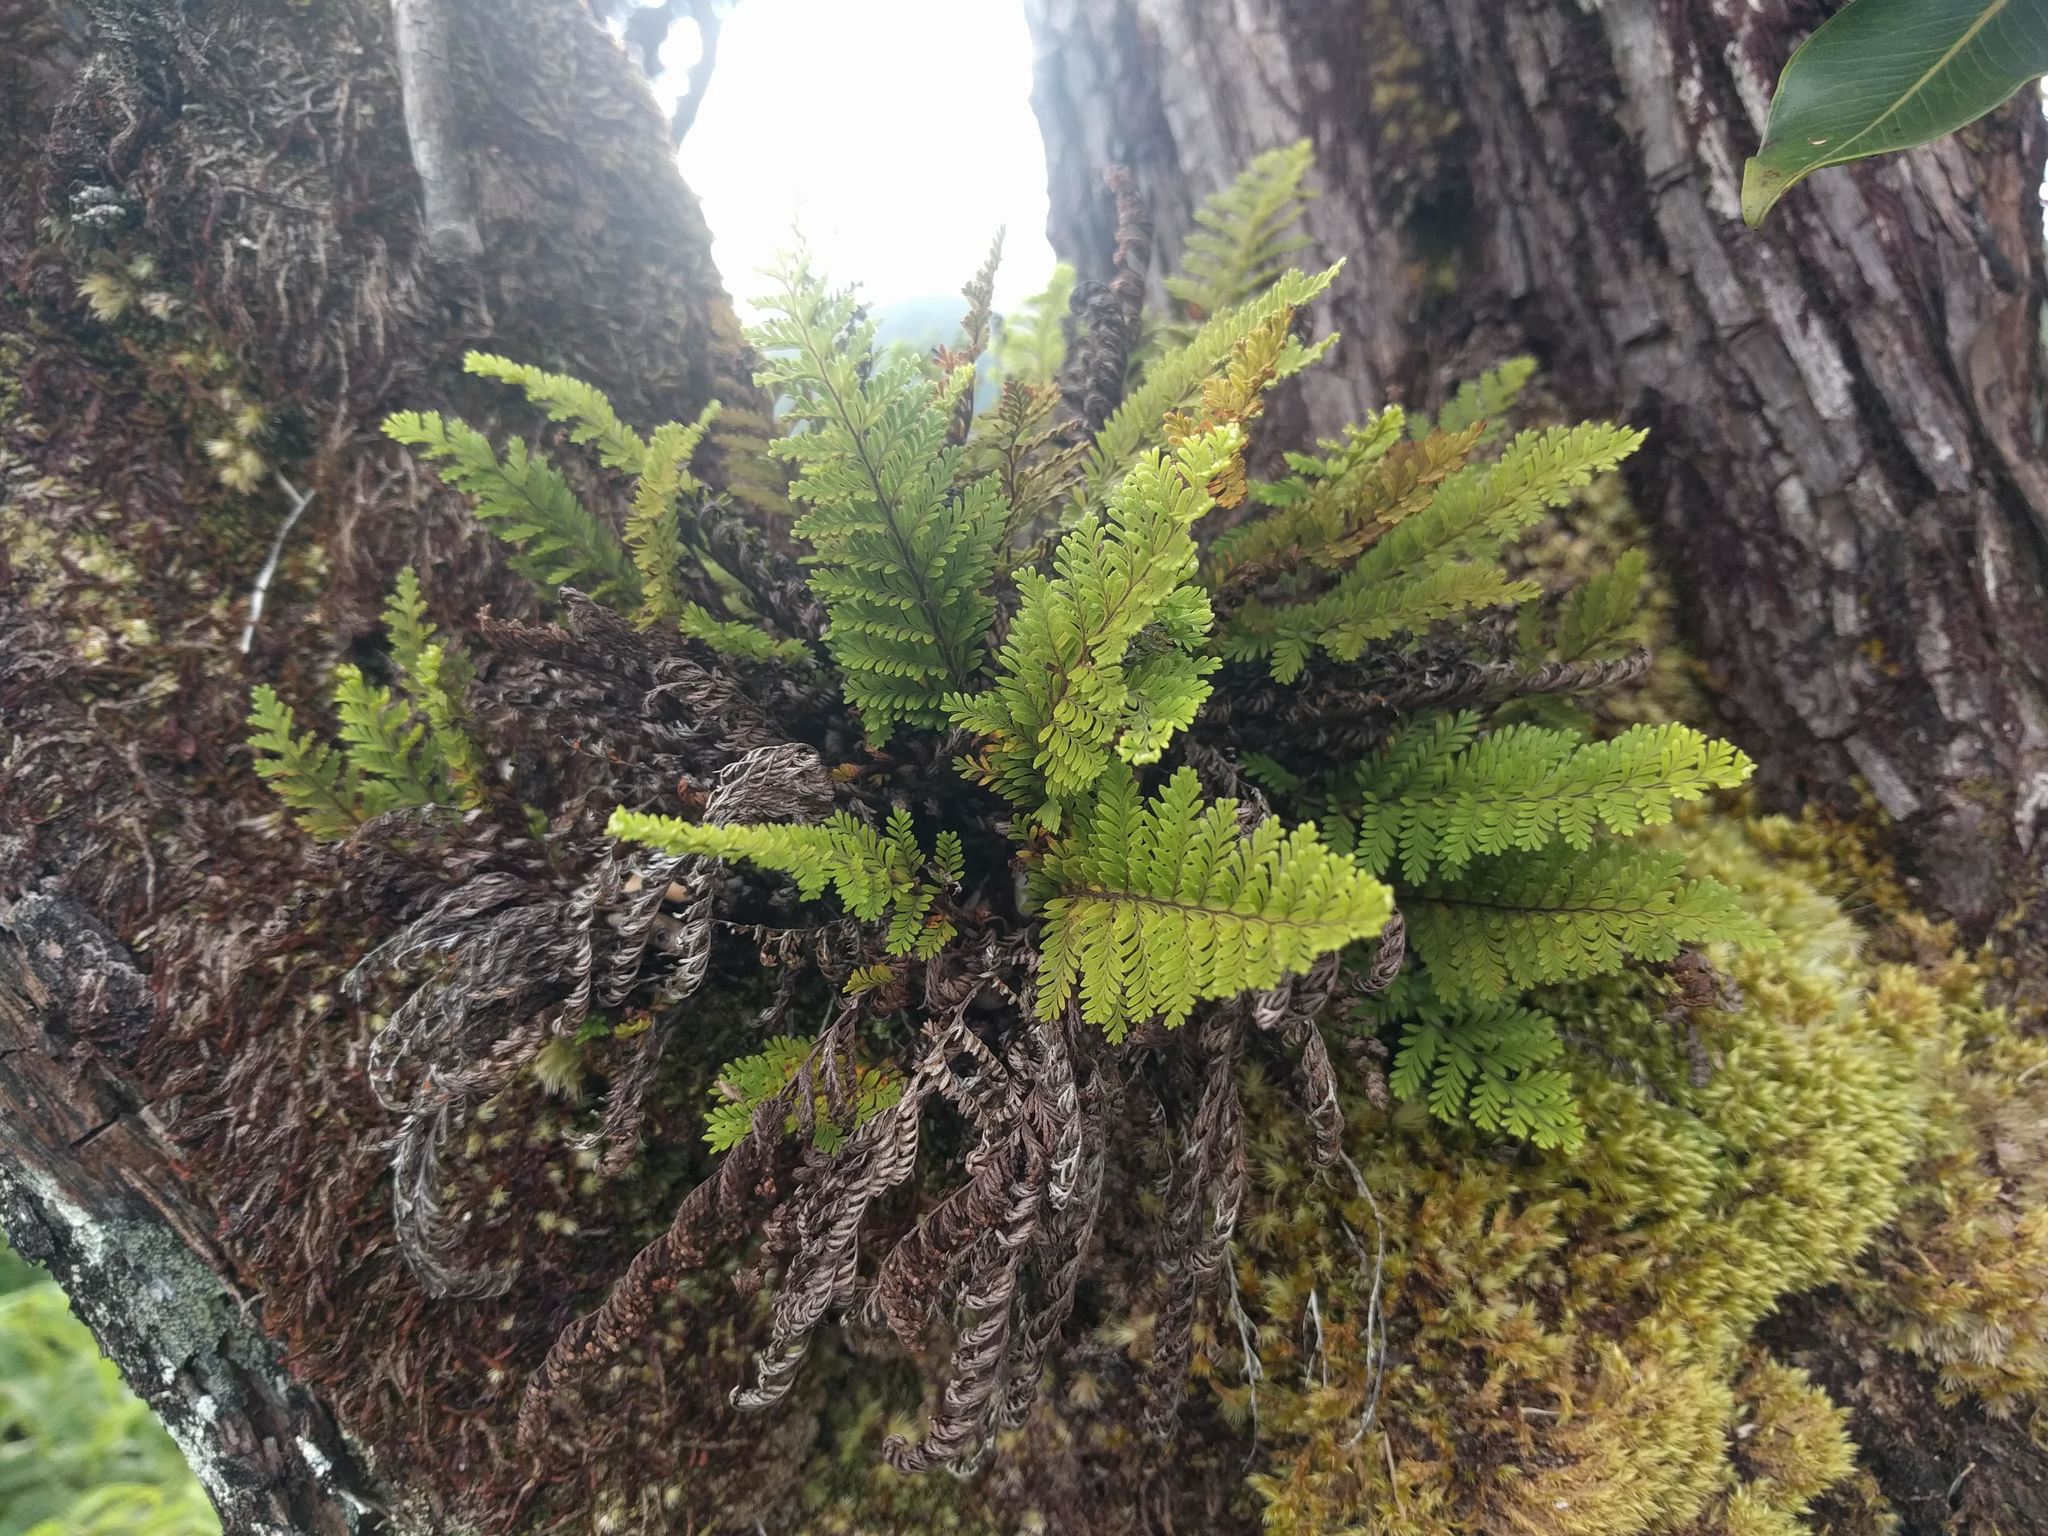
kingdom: Plantae
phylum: Tracheophyta
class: Polypodiopsida
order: Polypodiales
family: Polypodiaceae
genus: Adenophorus
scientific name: Adenophorus tamariscinus
